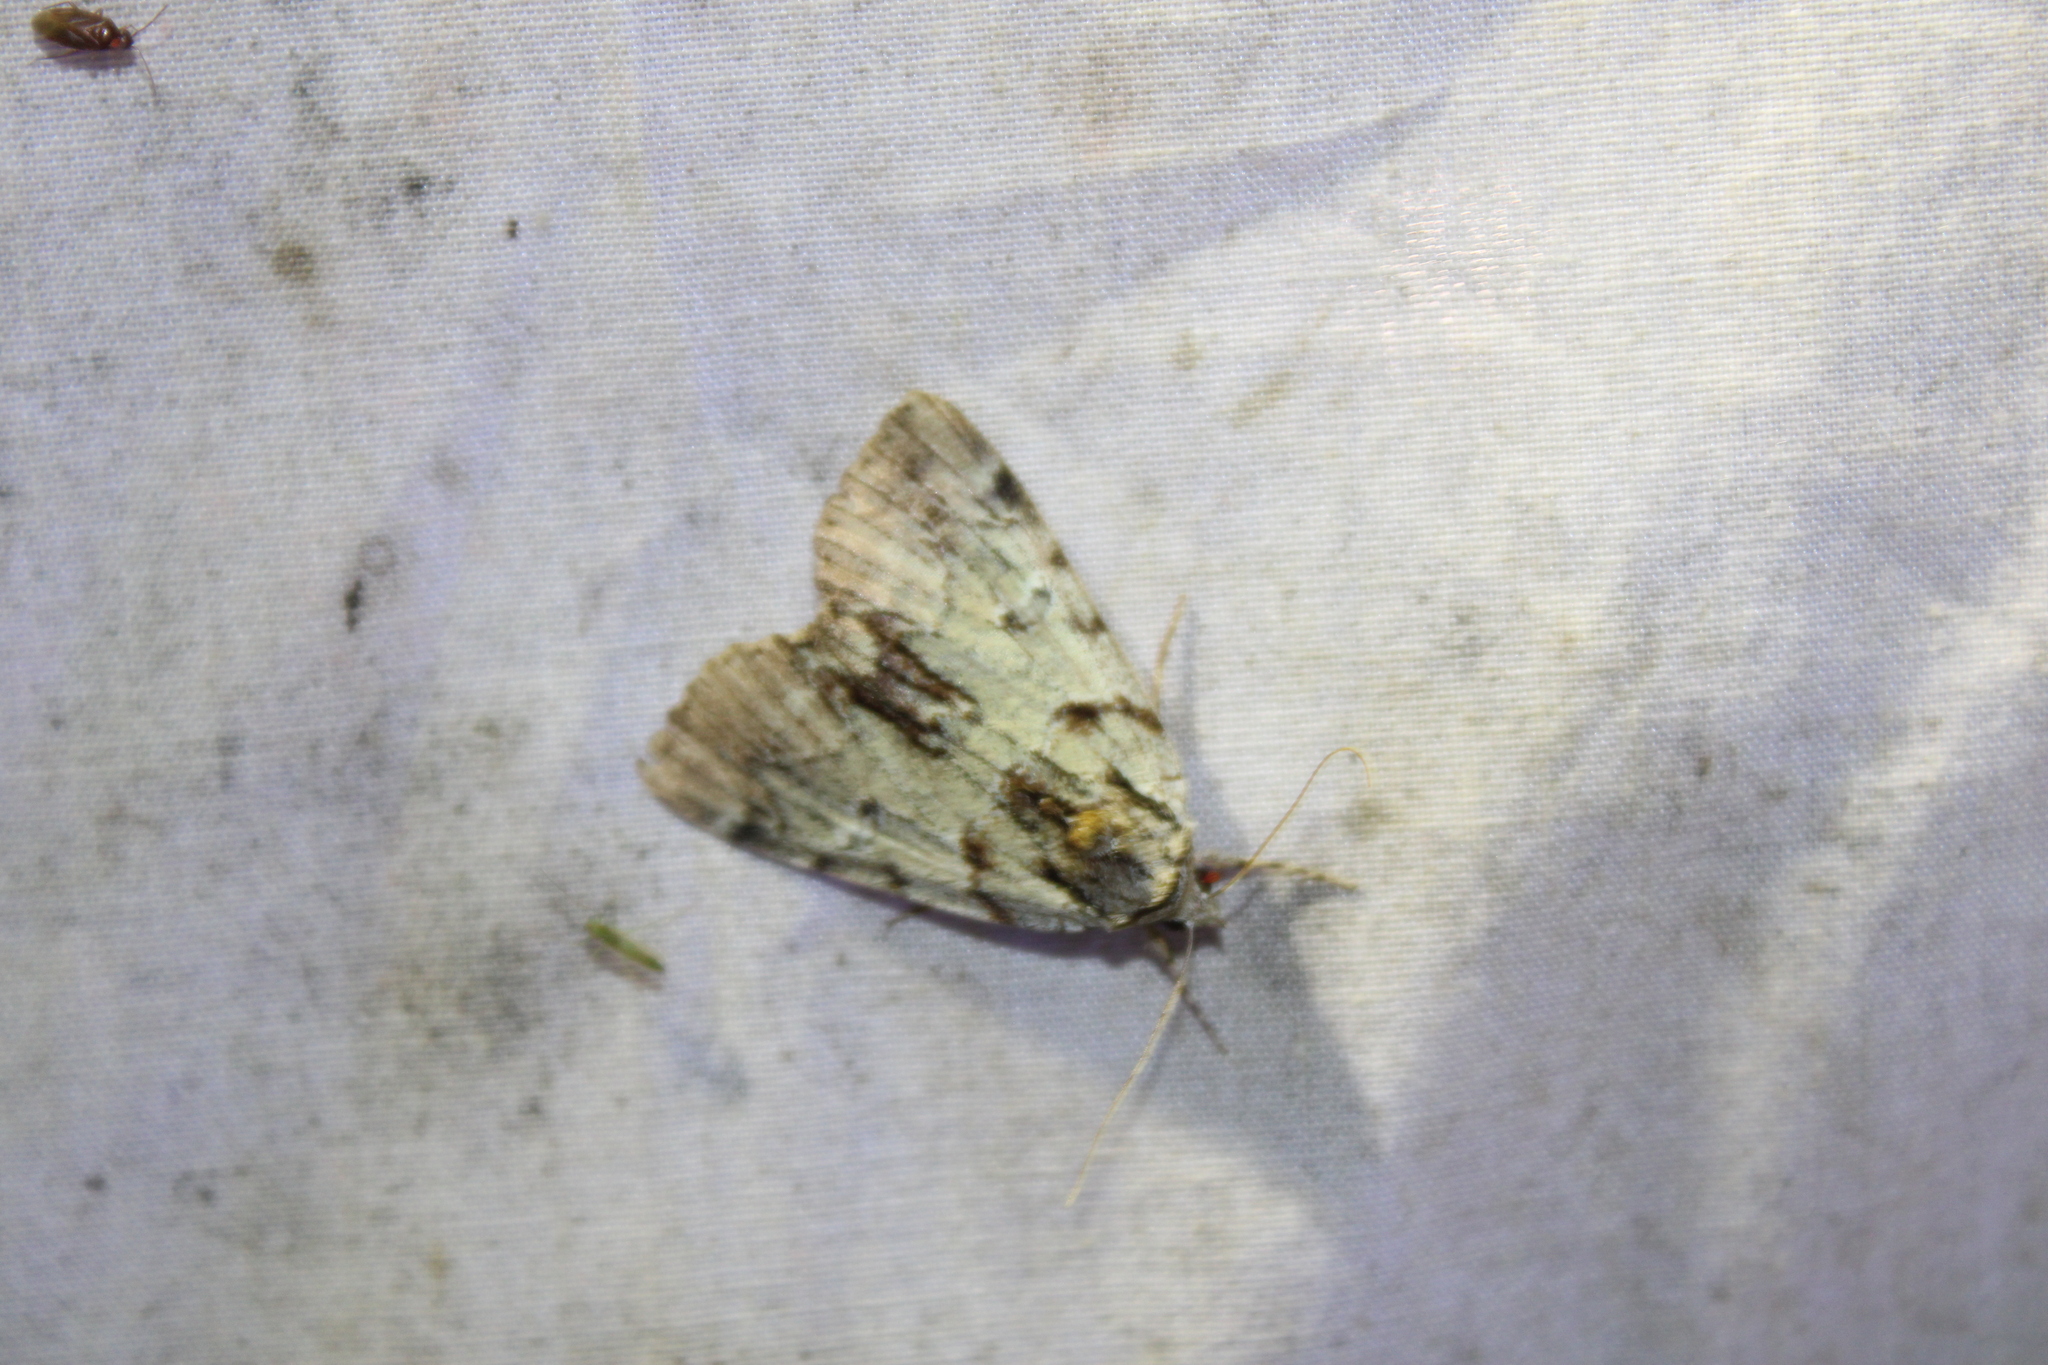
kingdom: Animalia
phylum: Arthropoda
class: Insecta
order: Lepidoptera
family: Erebidae
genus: Catocala
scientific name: Catocala praeclara
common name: Praeclara underwing
